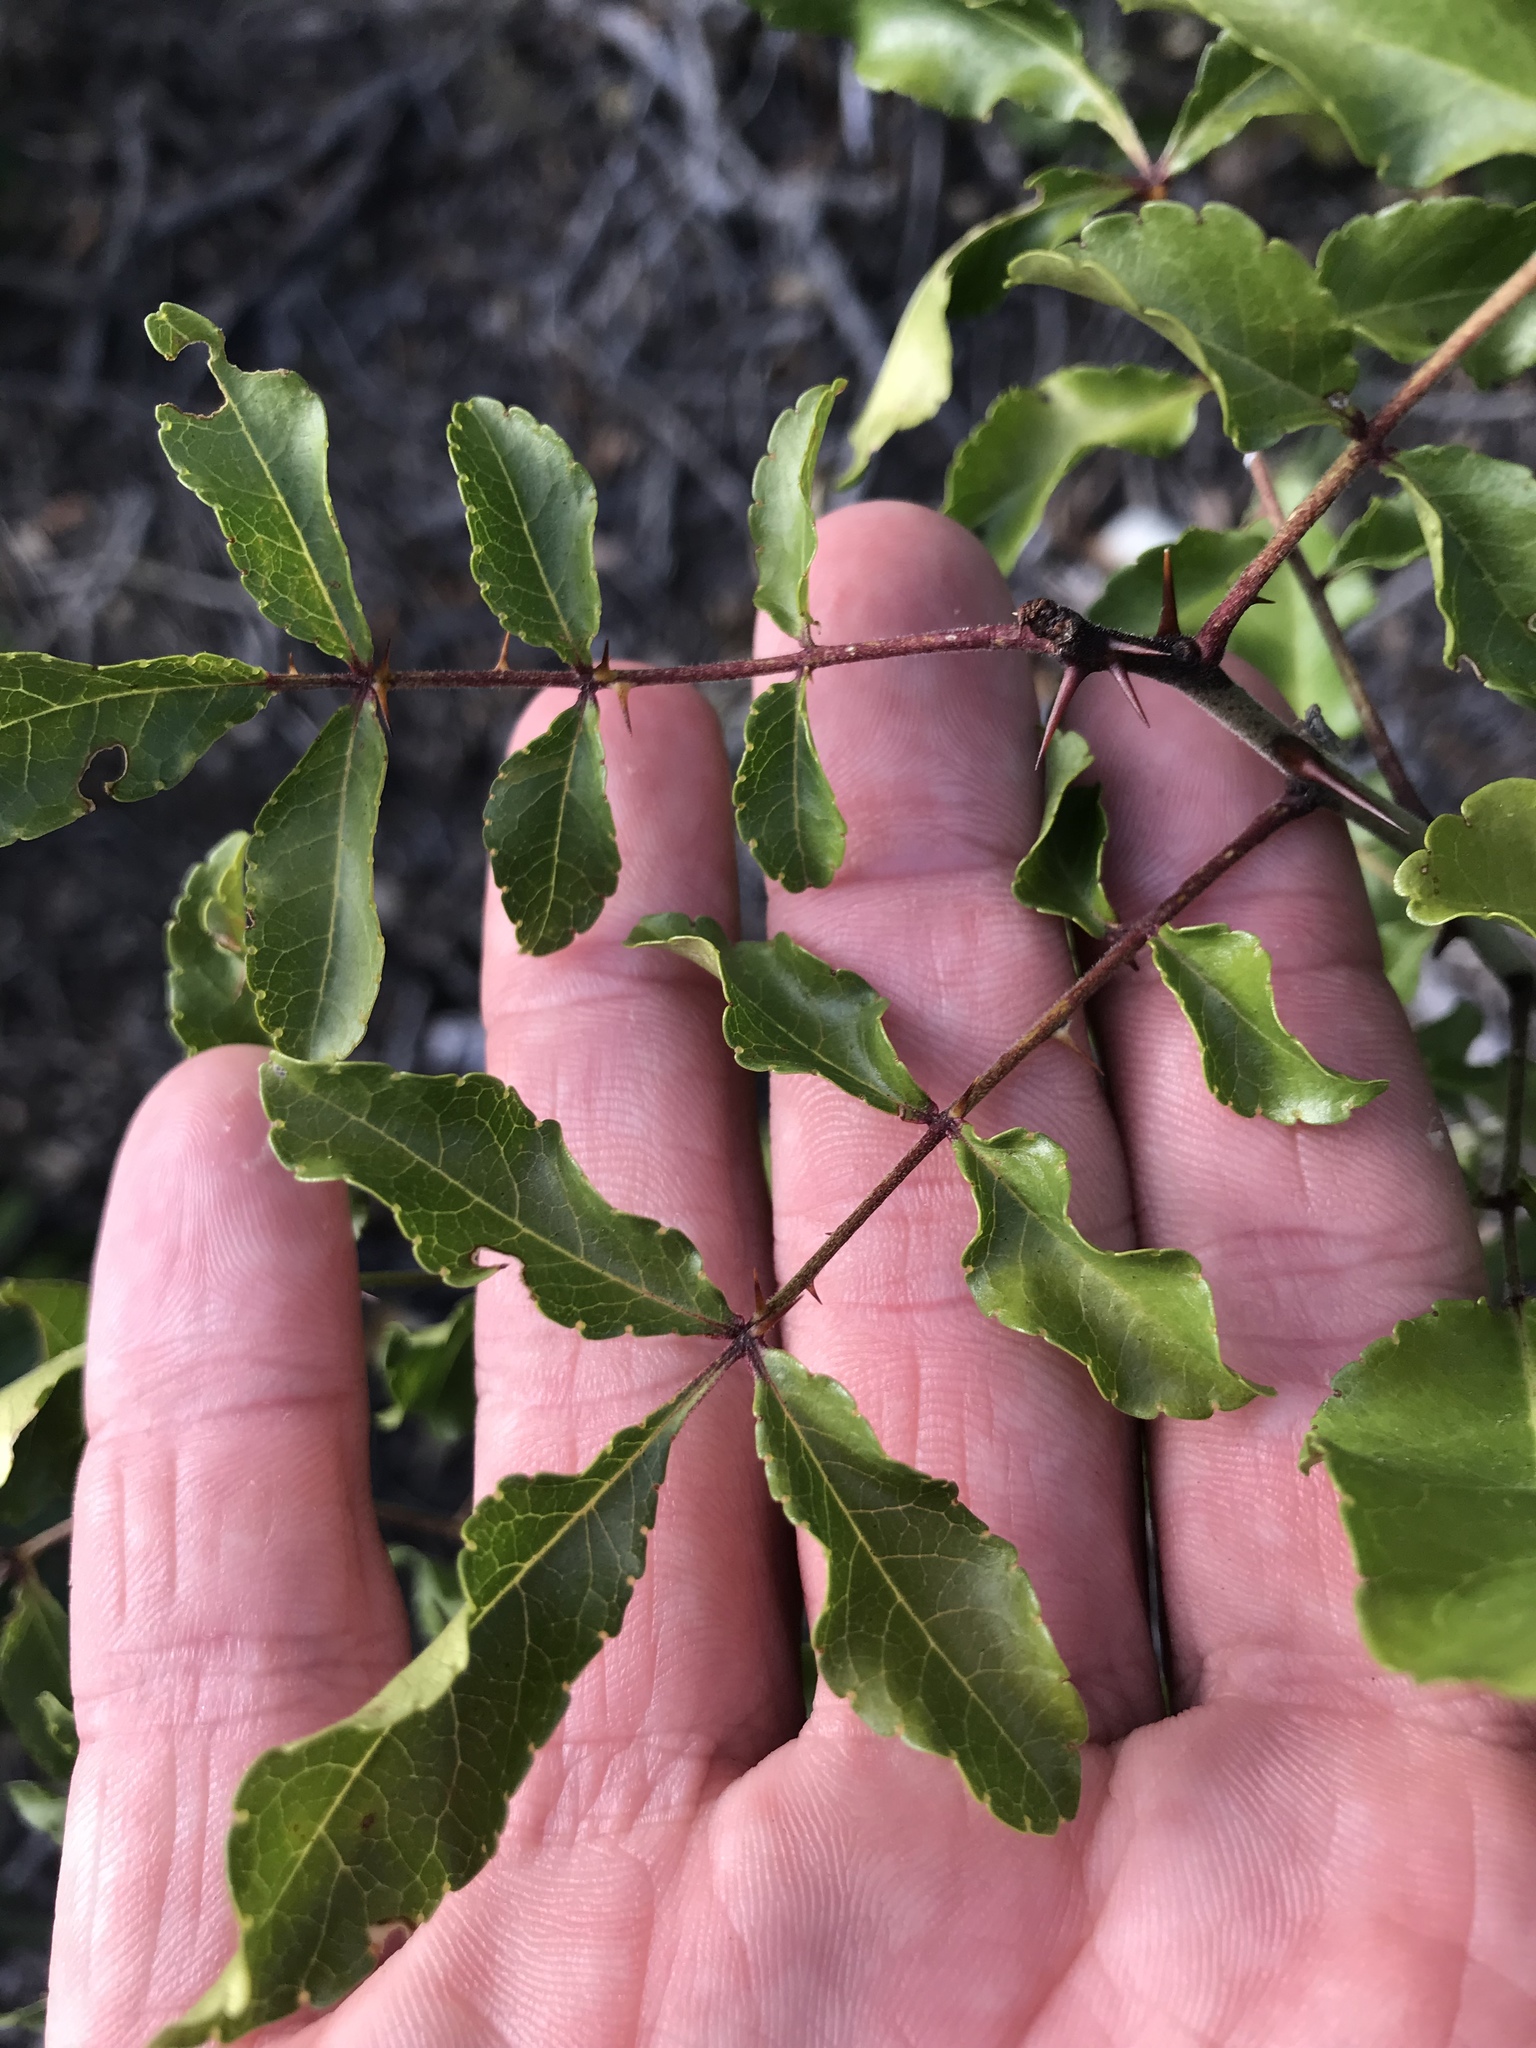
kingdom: Plantae
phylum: Tracheophyta
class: Magnoliopsida
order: Sapindales
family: Rutaceae
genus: Zanthoxylum
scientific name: Zanthoxylum clava-herculis
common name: Hercules'-club
